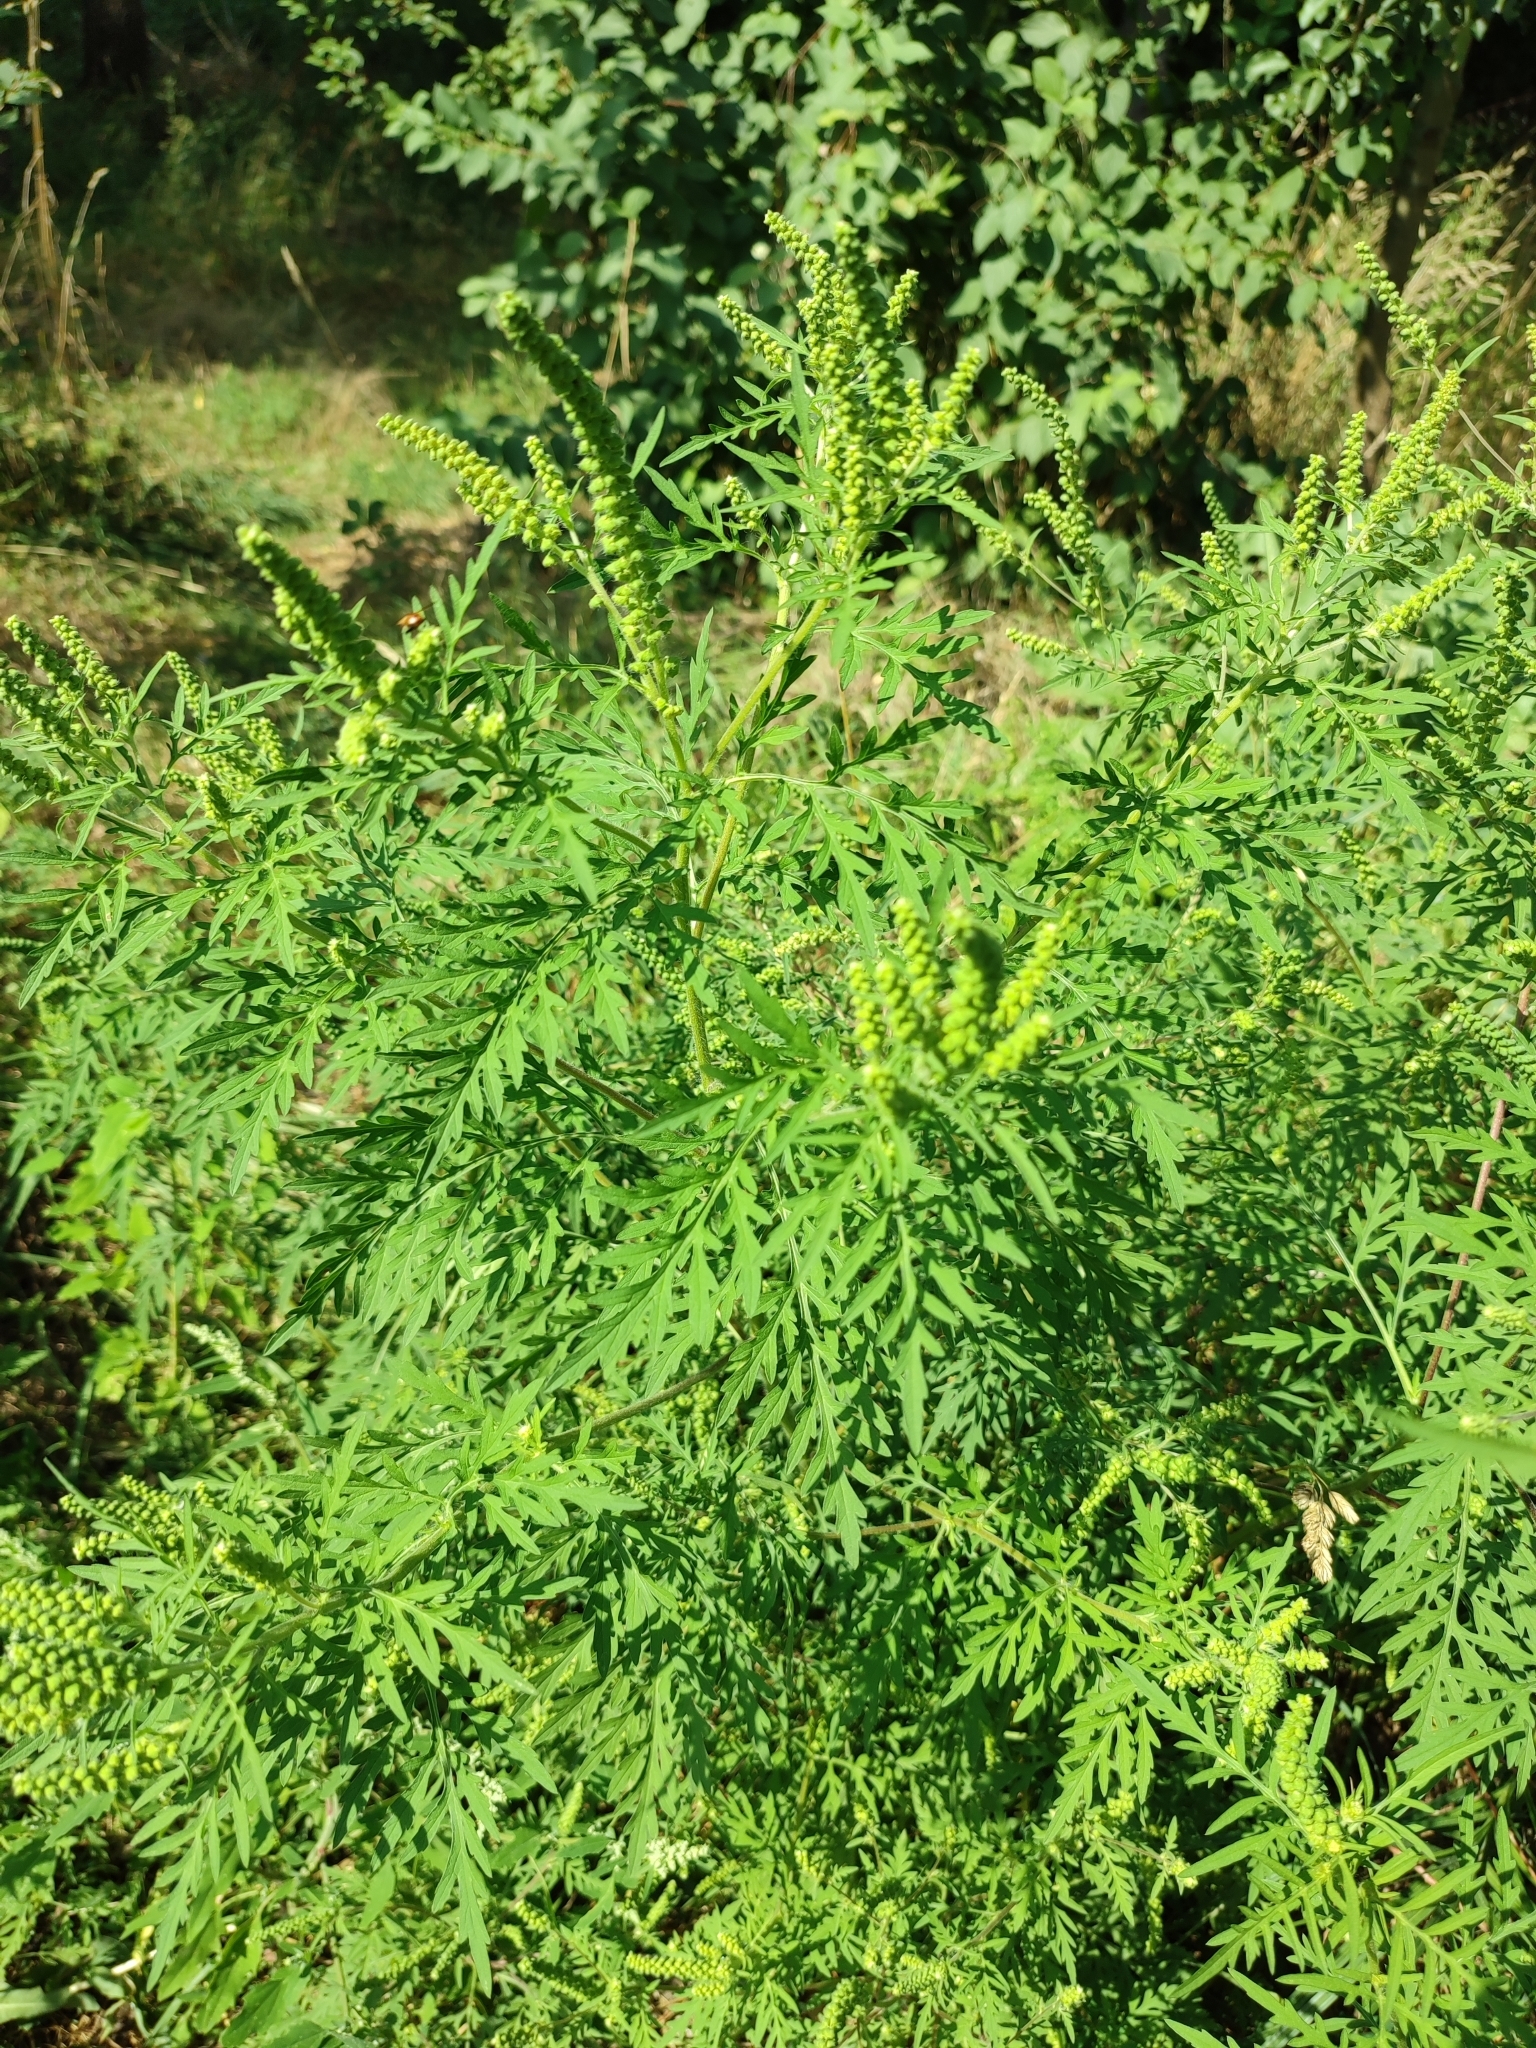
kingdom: Plantae
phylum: Tracheophyta
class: Magnoliopsida
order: Asterales
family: Asteraceae
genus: Ambrosia
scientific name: Ambrosia artemisiifolia
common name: Annual ragweed
